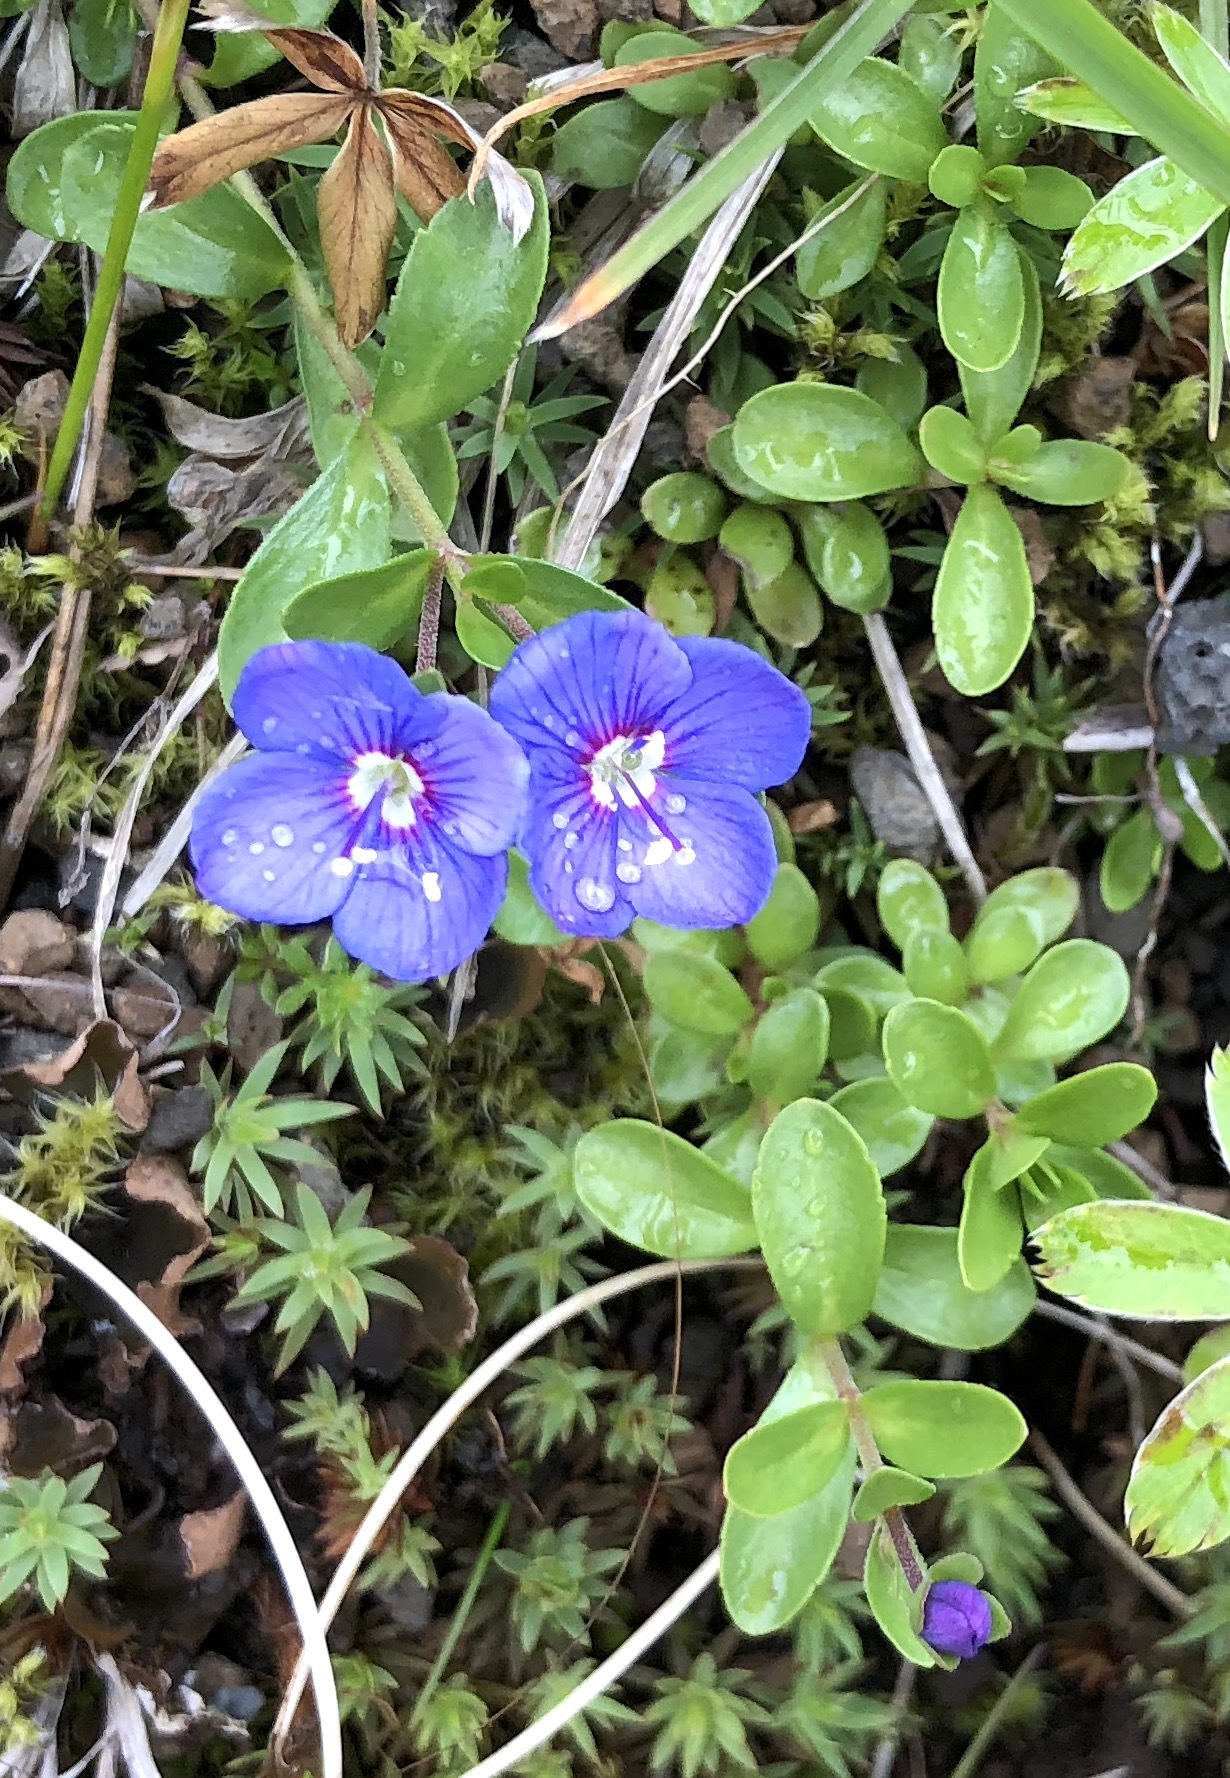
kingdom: Plantae
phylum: Tracheophyta
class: Magnoliopsida
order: Lamiales
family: Plantaginaceae
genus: Veronica
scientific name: Veronica fruticans
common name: Rock speedwell
